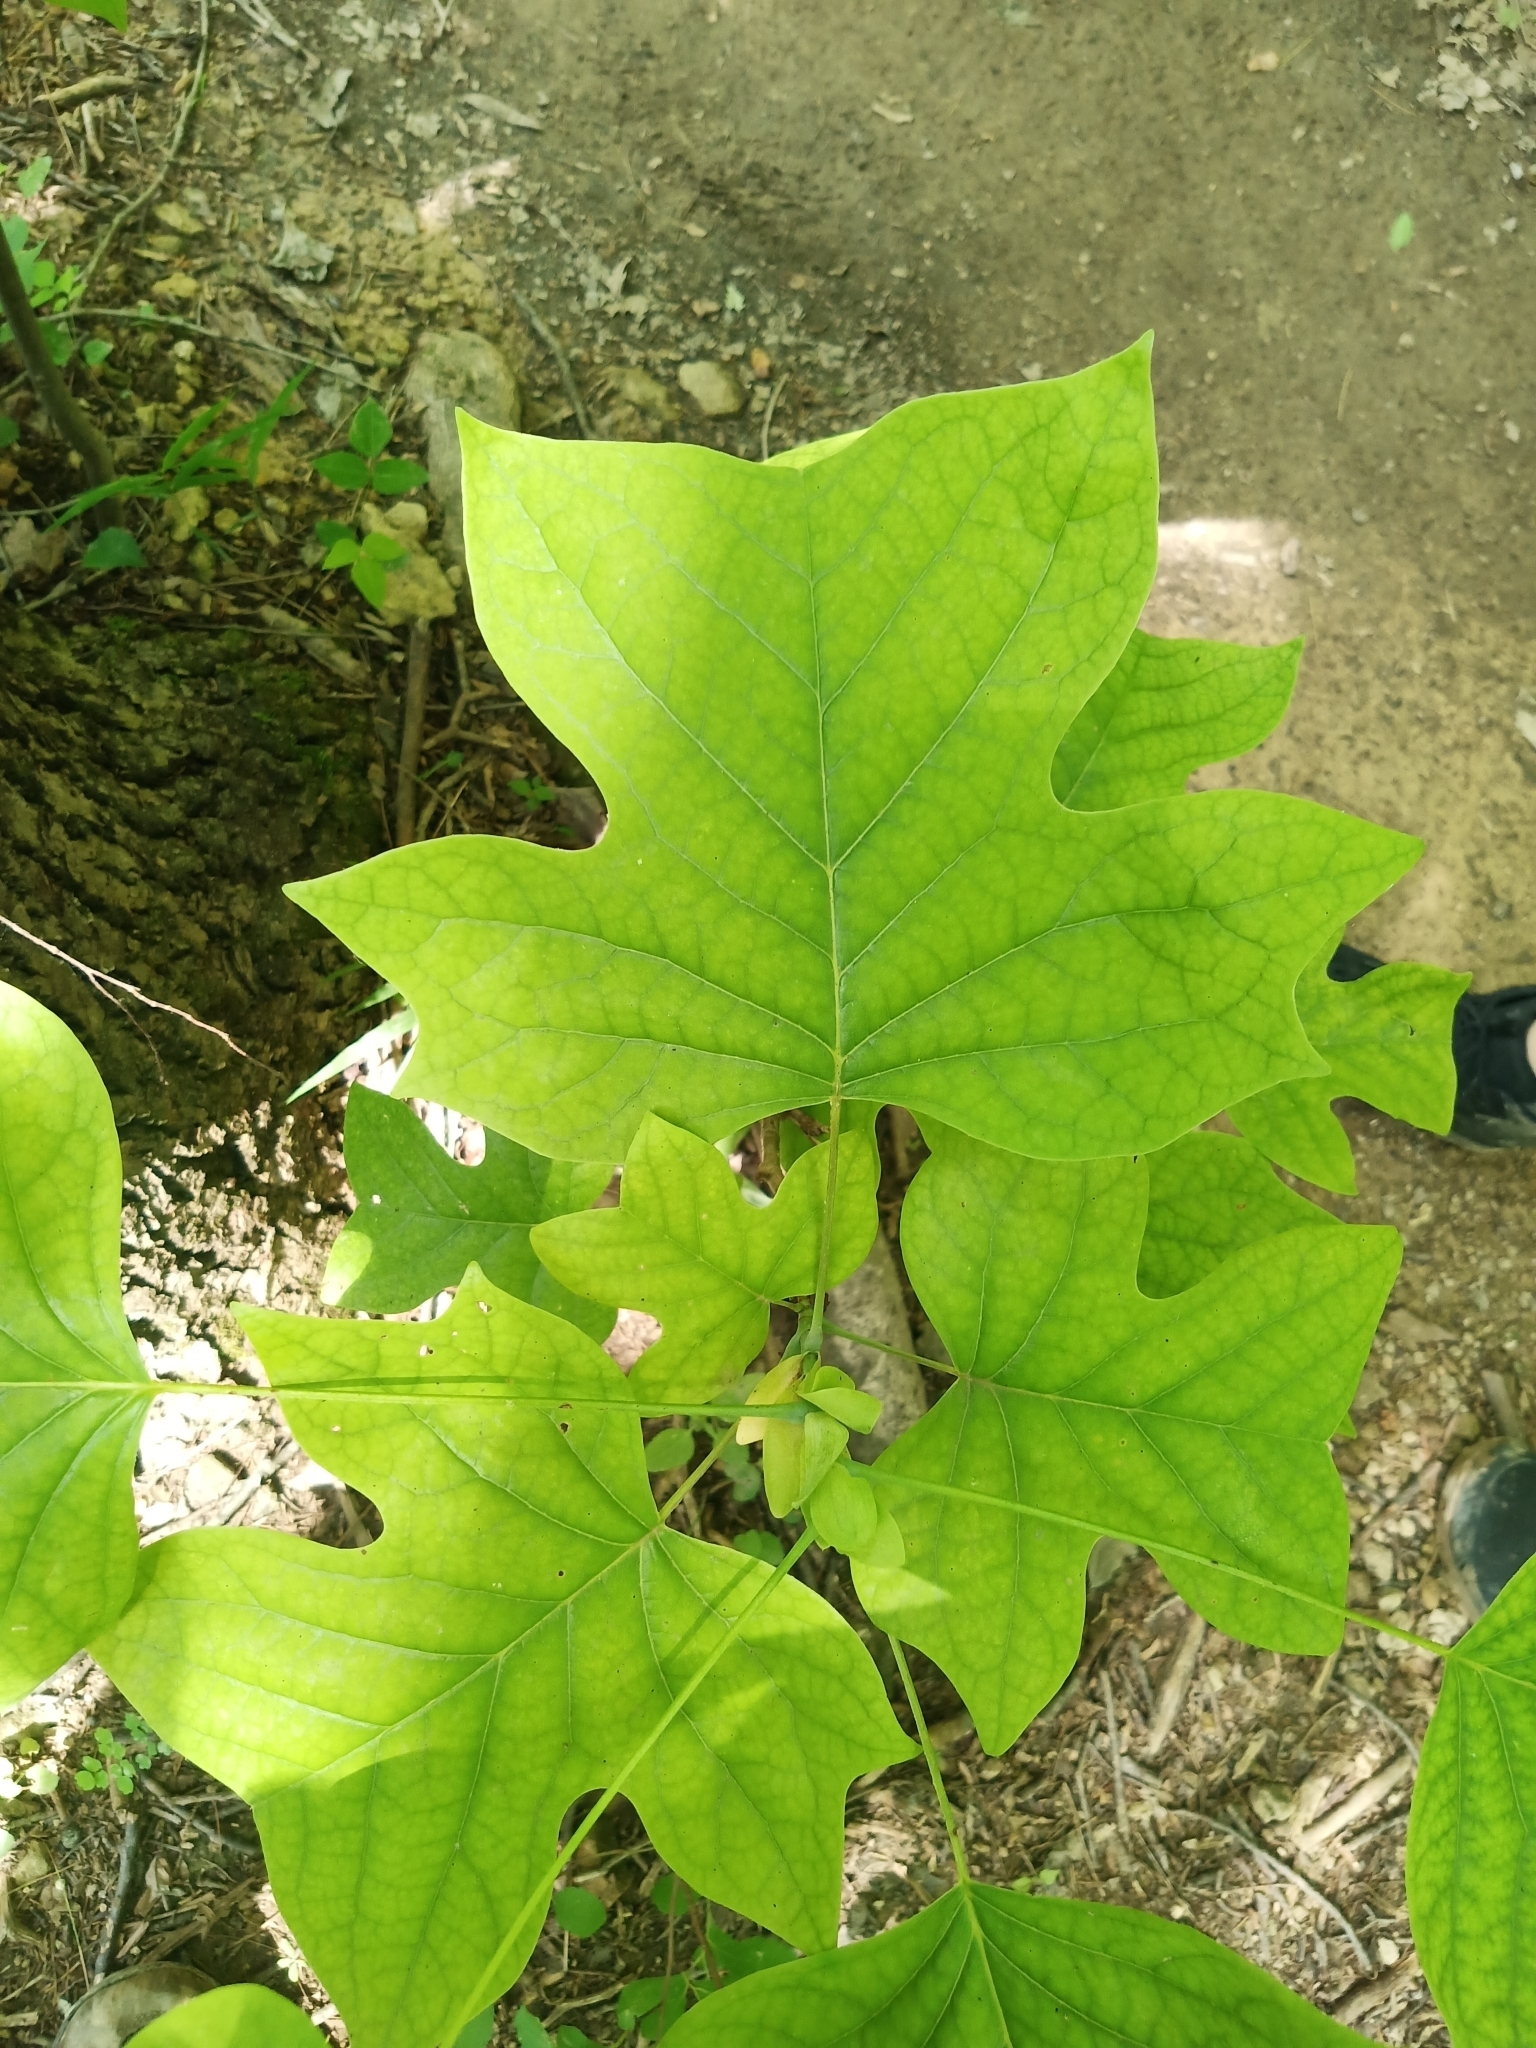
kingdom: Plantae
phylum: Tracheophyta
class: Magnoliopsida
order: Magnoliales
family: Magnoliaceae
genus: Liriodendron
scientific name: Liriodendron tulipifera
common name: Tulip tree
